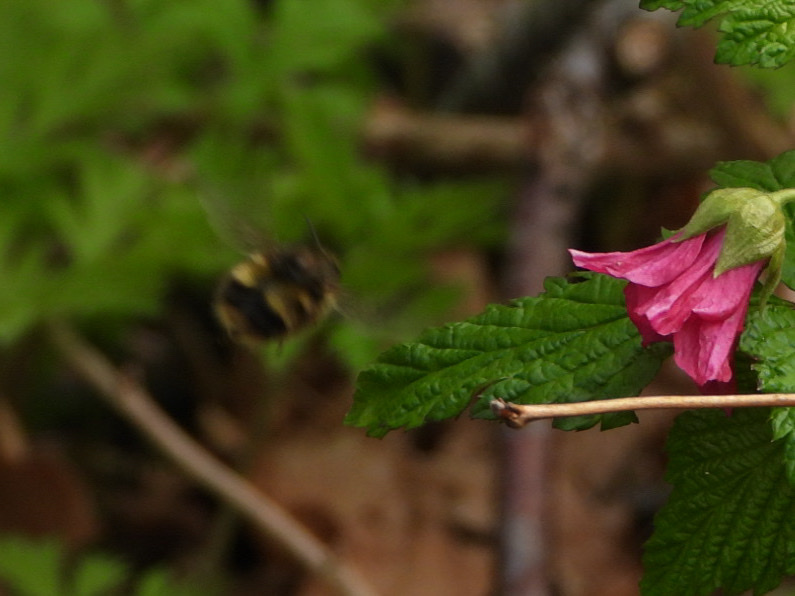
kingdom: Animalia
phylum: Arthropoda
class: Insecta
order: Hymenoptera
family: Apidae
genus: Bombus
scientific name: Bombus sitkensis
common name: Sitka bumble bee
